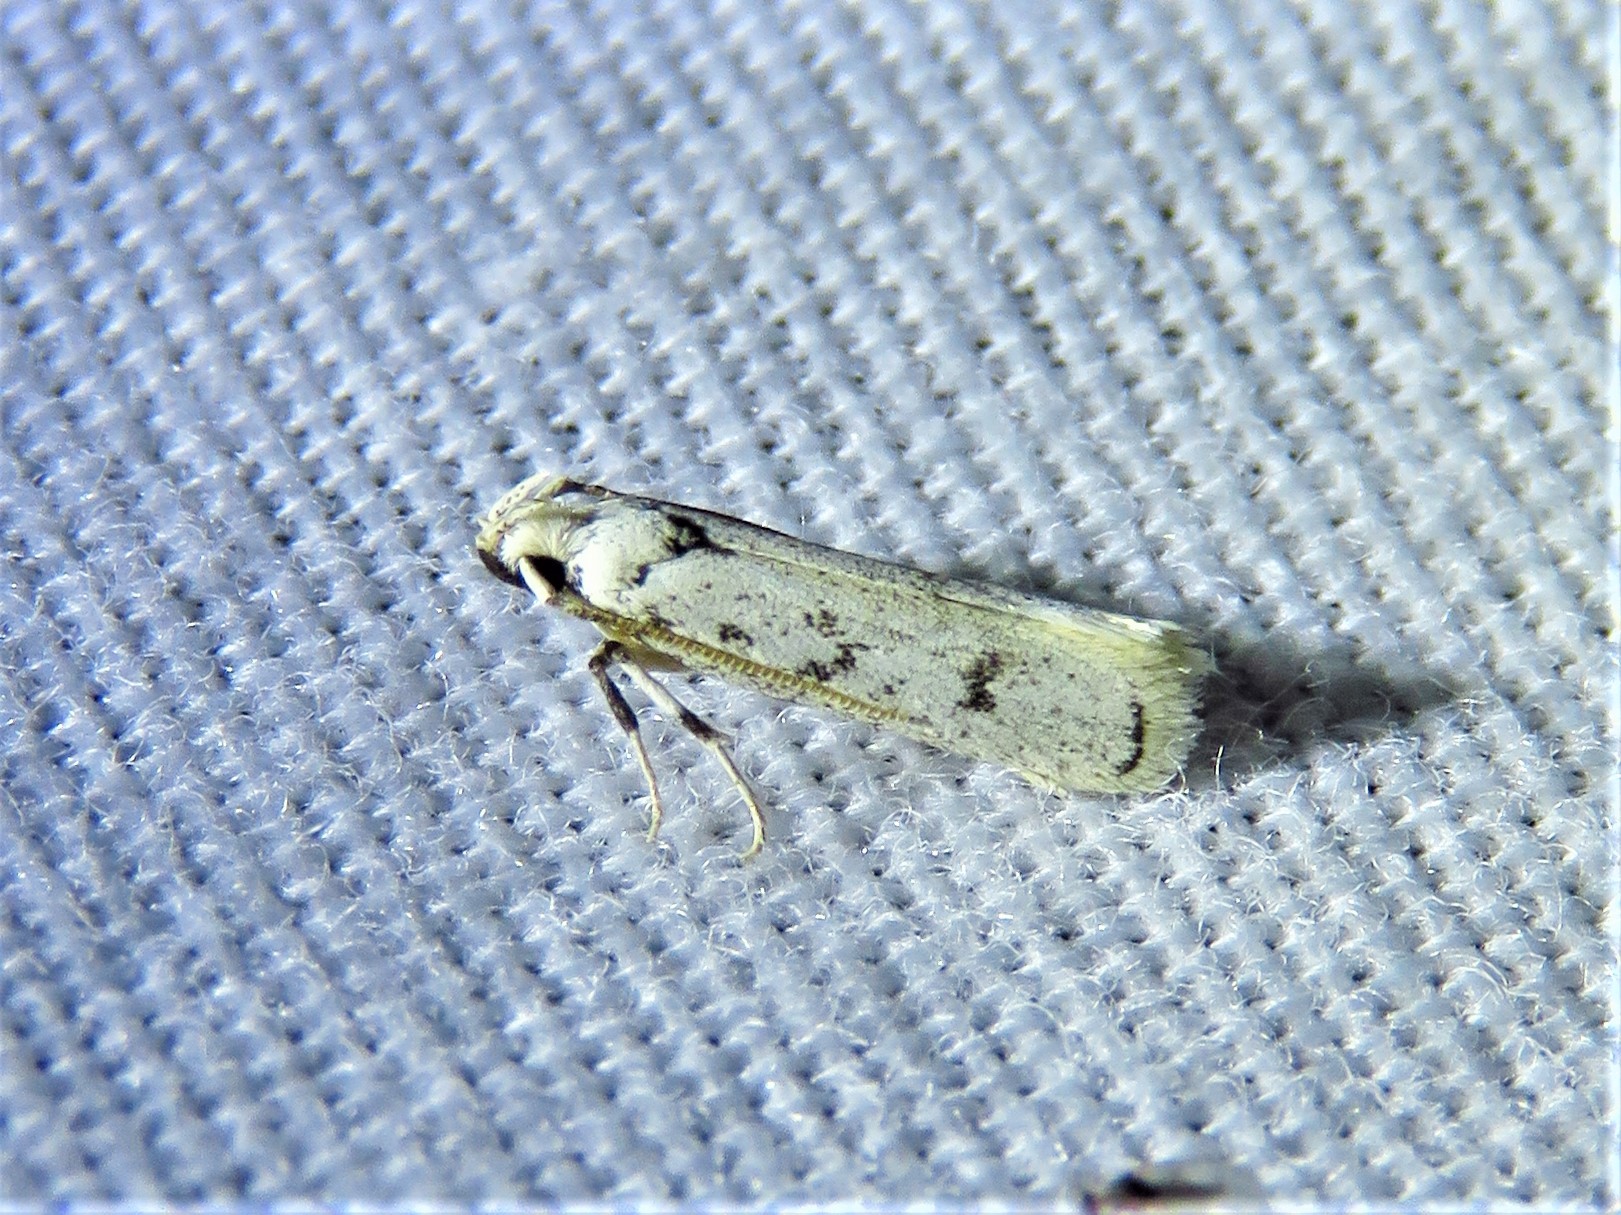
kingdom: Animalia
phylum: Arthropoda
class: Insecta
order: Lepidoptera
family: Autostichidae
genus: Glyphidocera
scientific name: Glyphidocera lactiflosella
